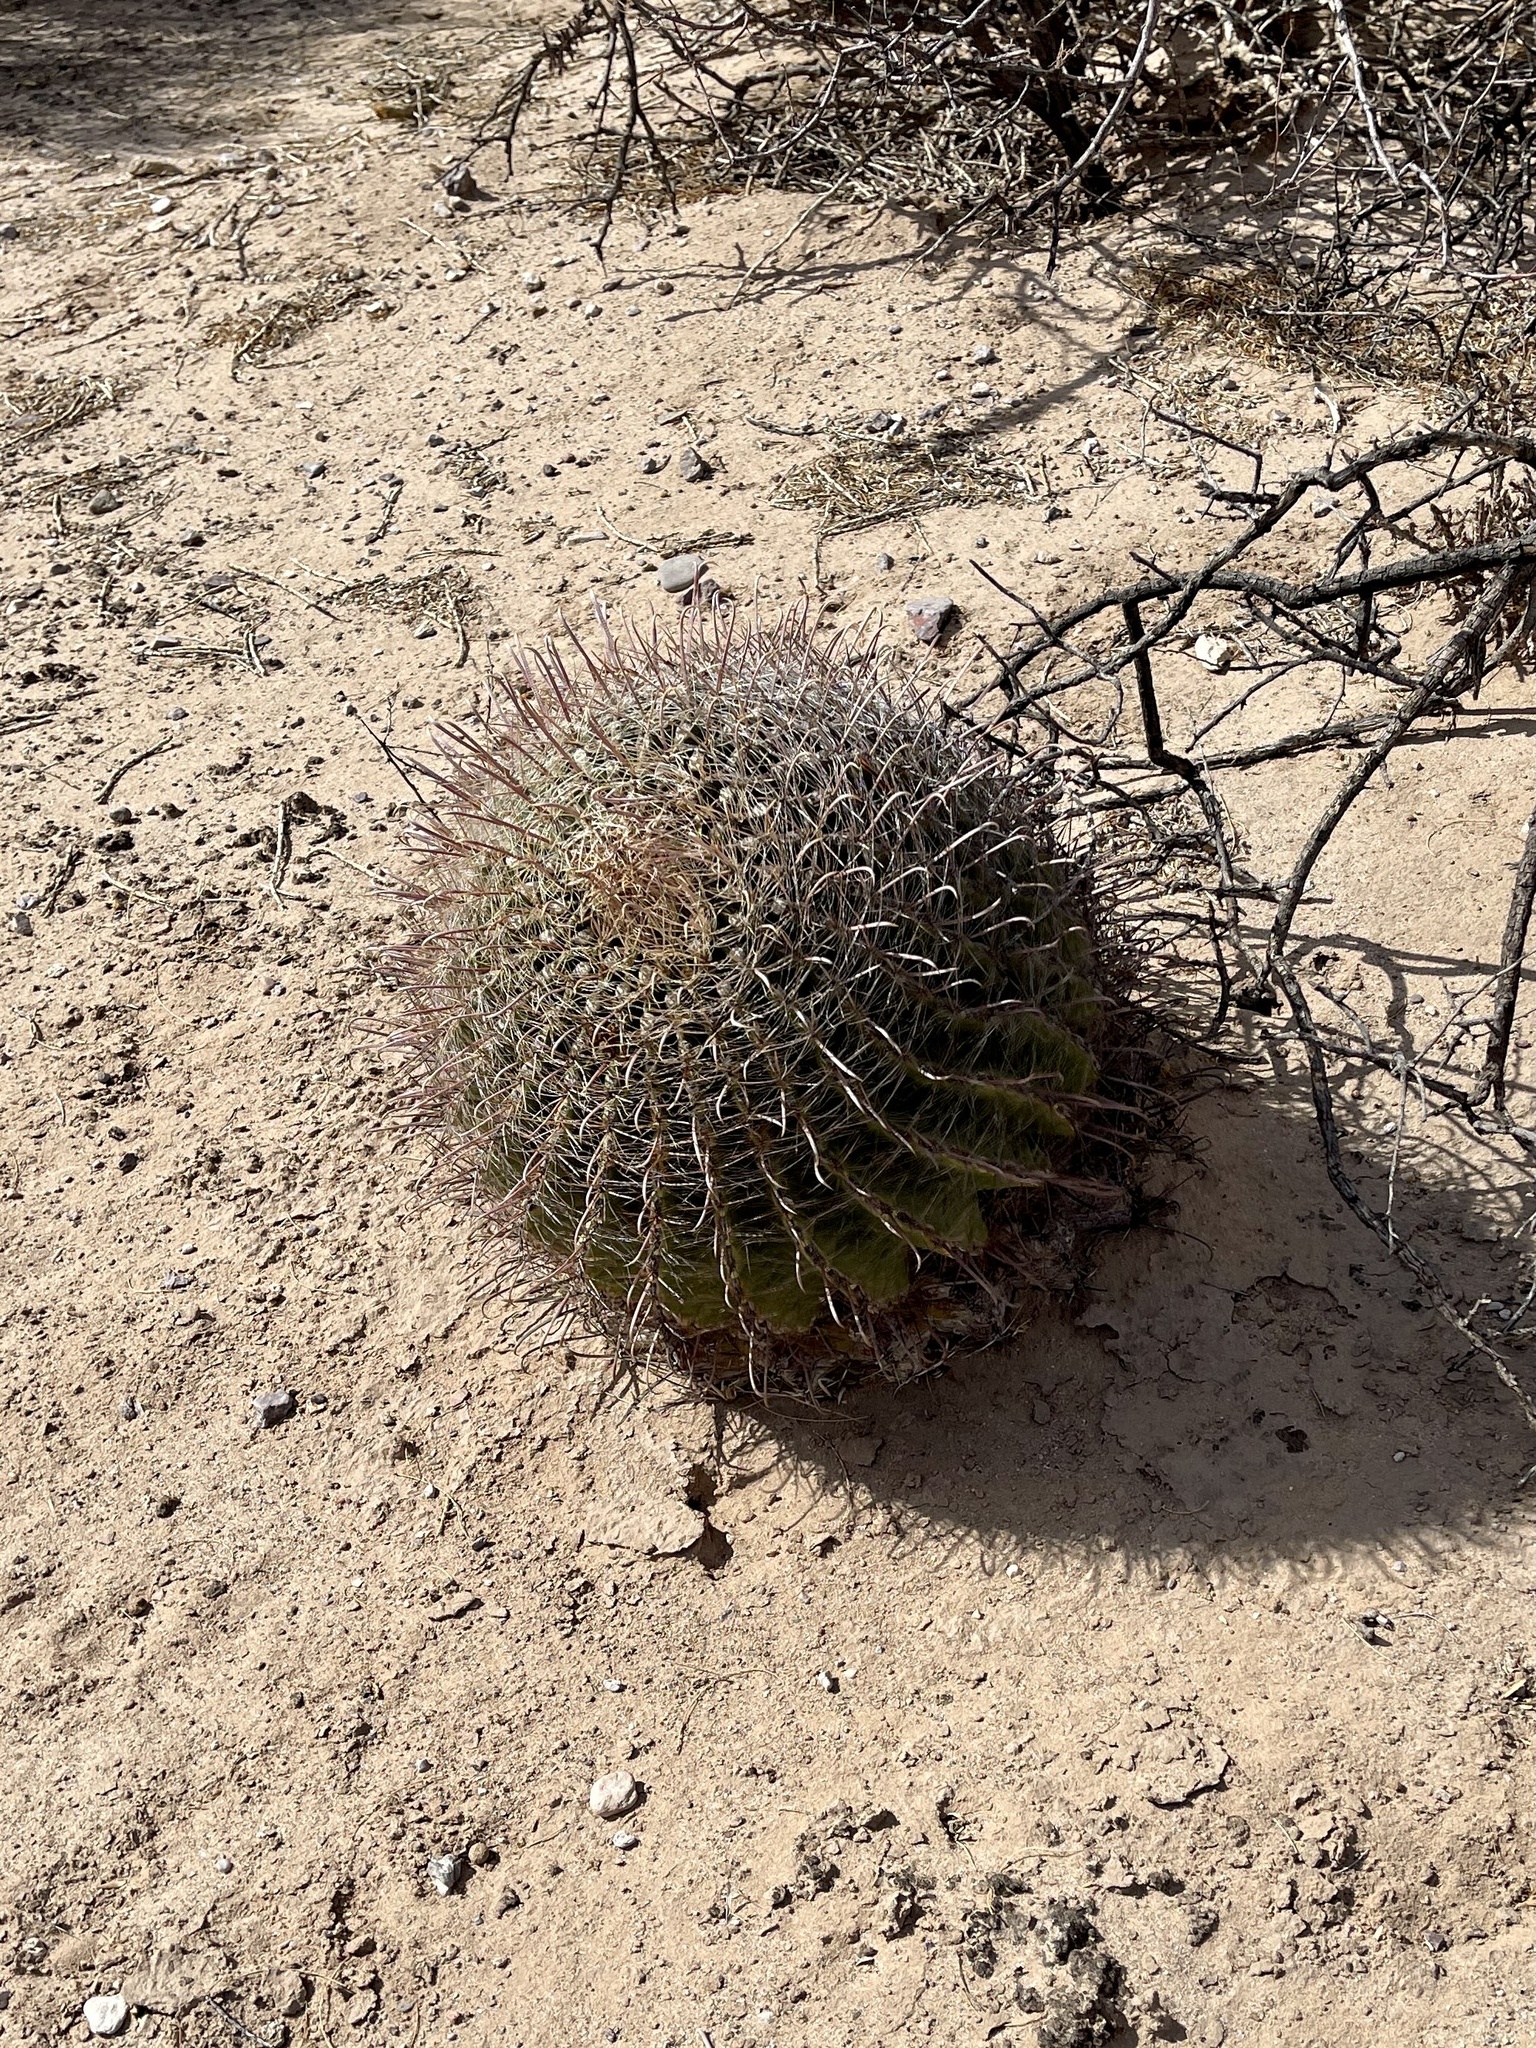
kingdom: Plantae
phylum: Tracheophyta
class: Magnoliopsida
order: Caryophyllales
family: Cactaceae
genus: Ferocactus
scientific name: Ferocactus wislizeni
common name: Candy barrel cactus
